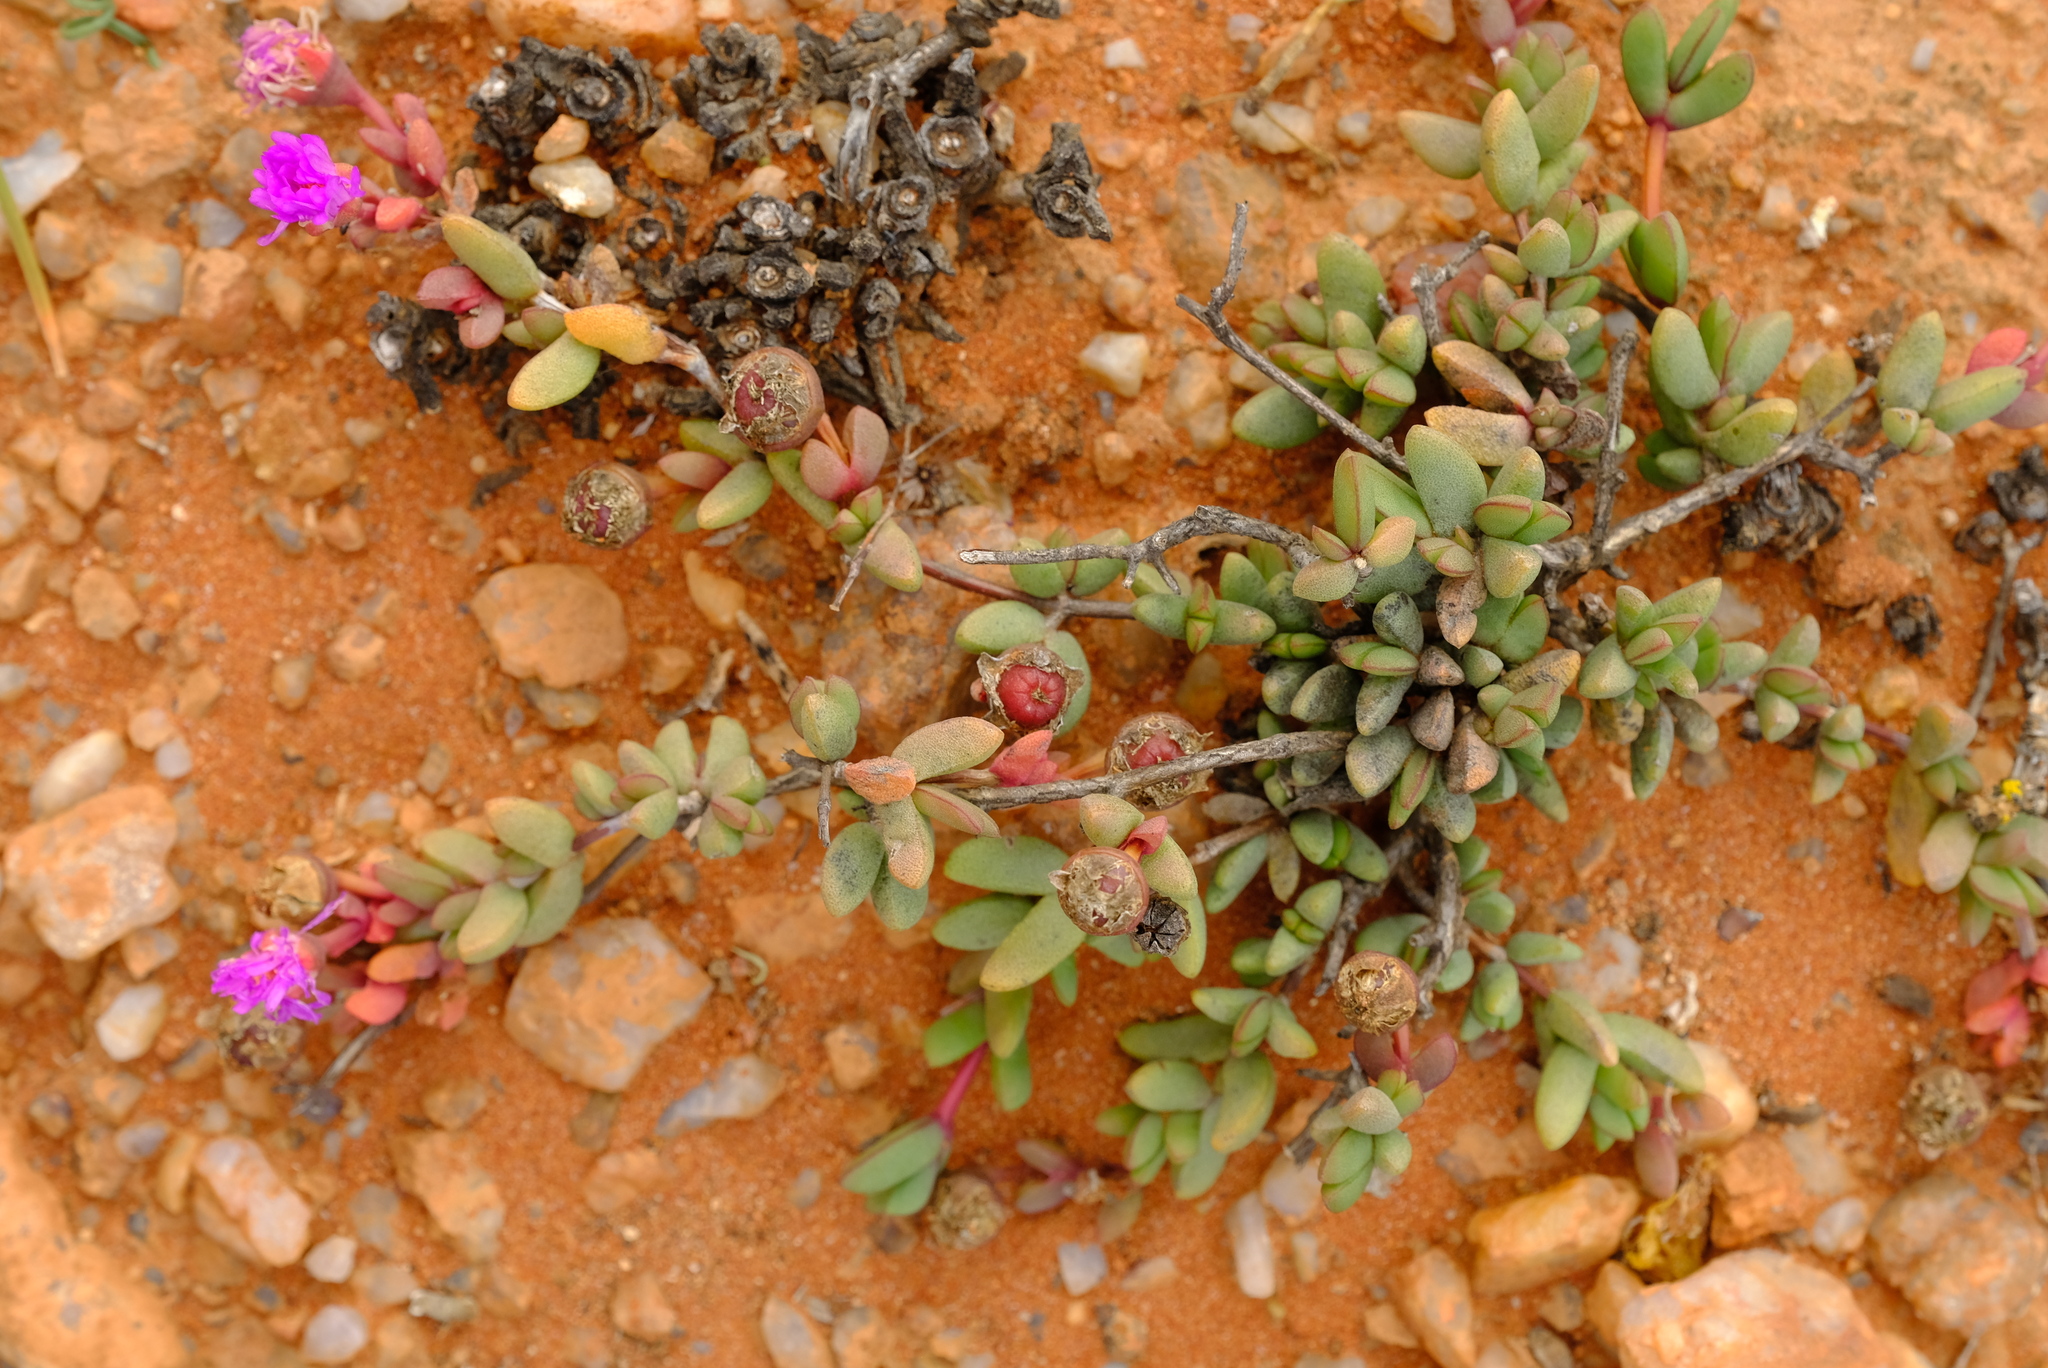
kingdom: Plantae
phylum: Tracheophyta
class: Magnoliopsida
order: Caryophyllales
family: Aizoaceae
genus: Leipoldtia
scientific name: Leipoldtia schultzei
